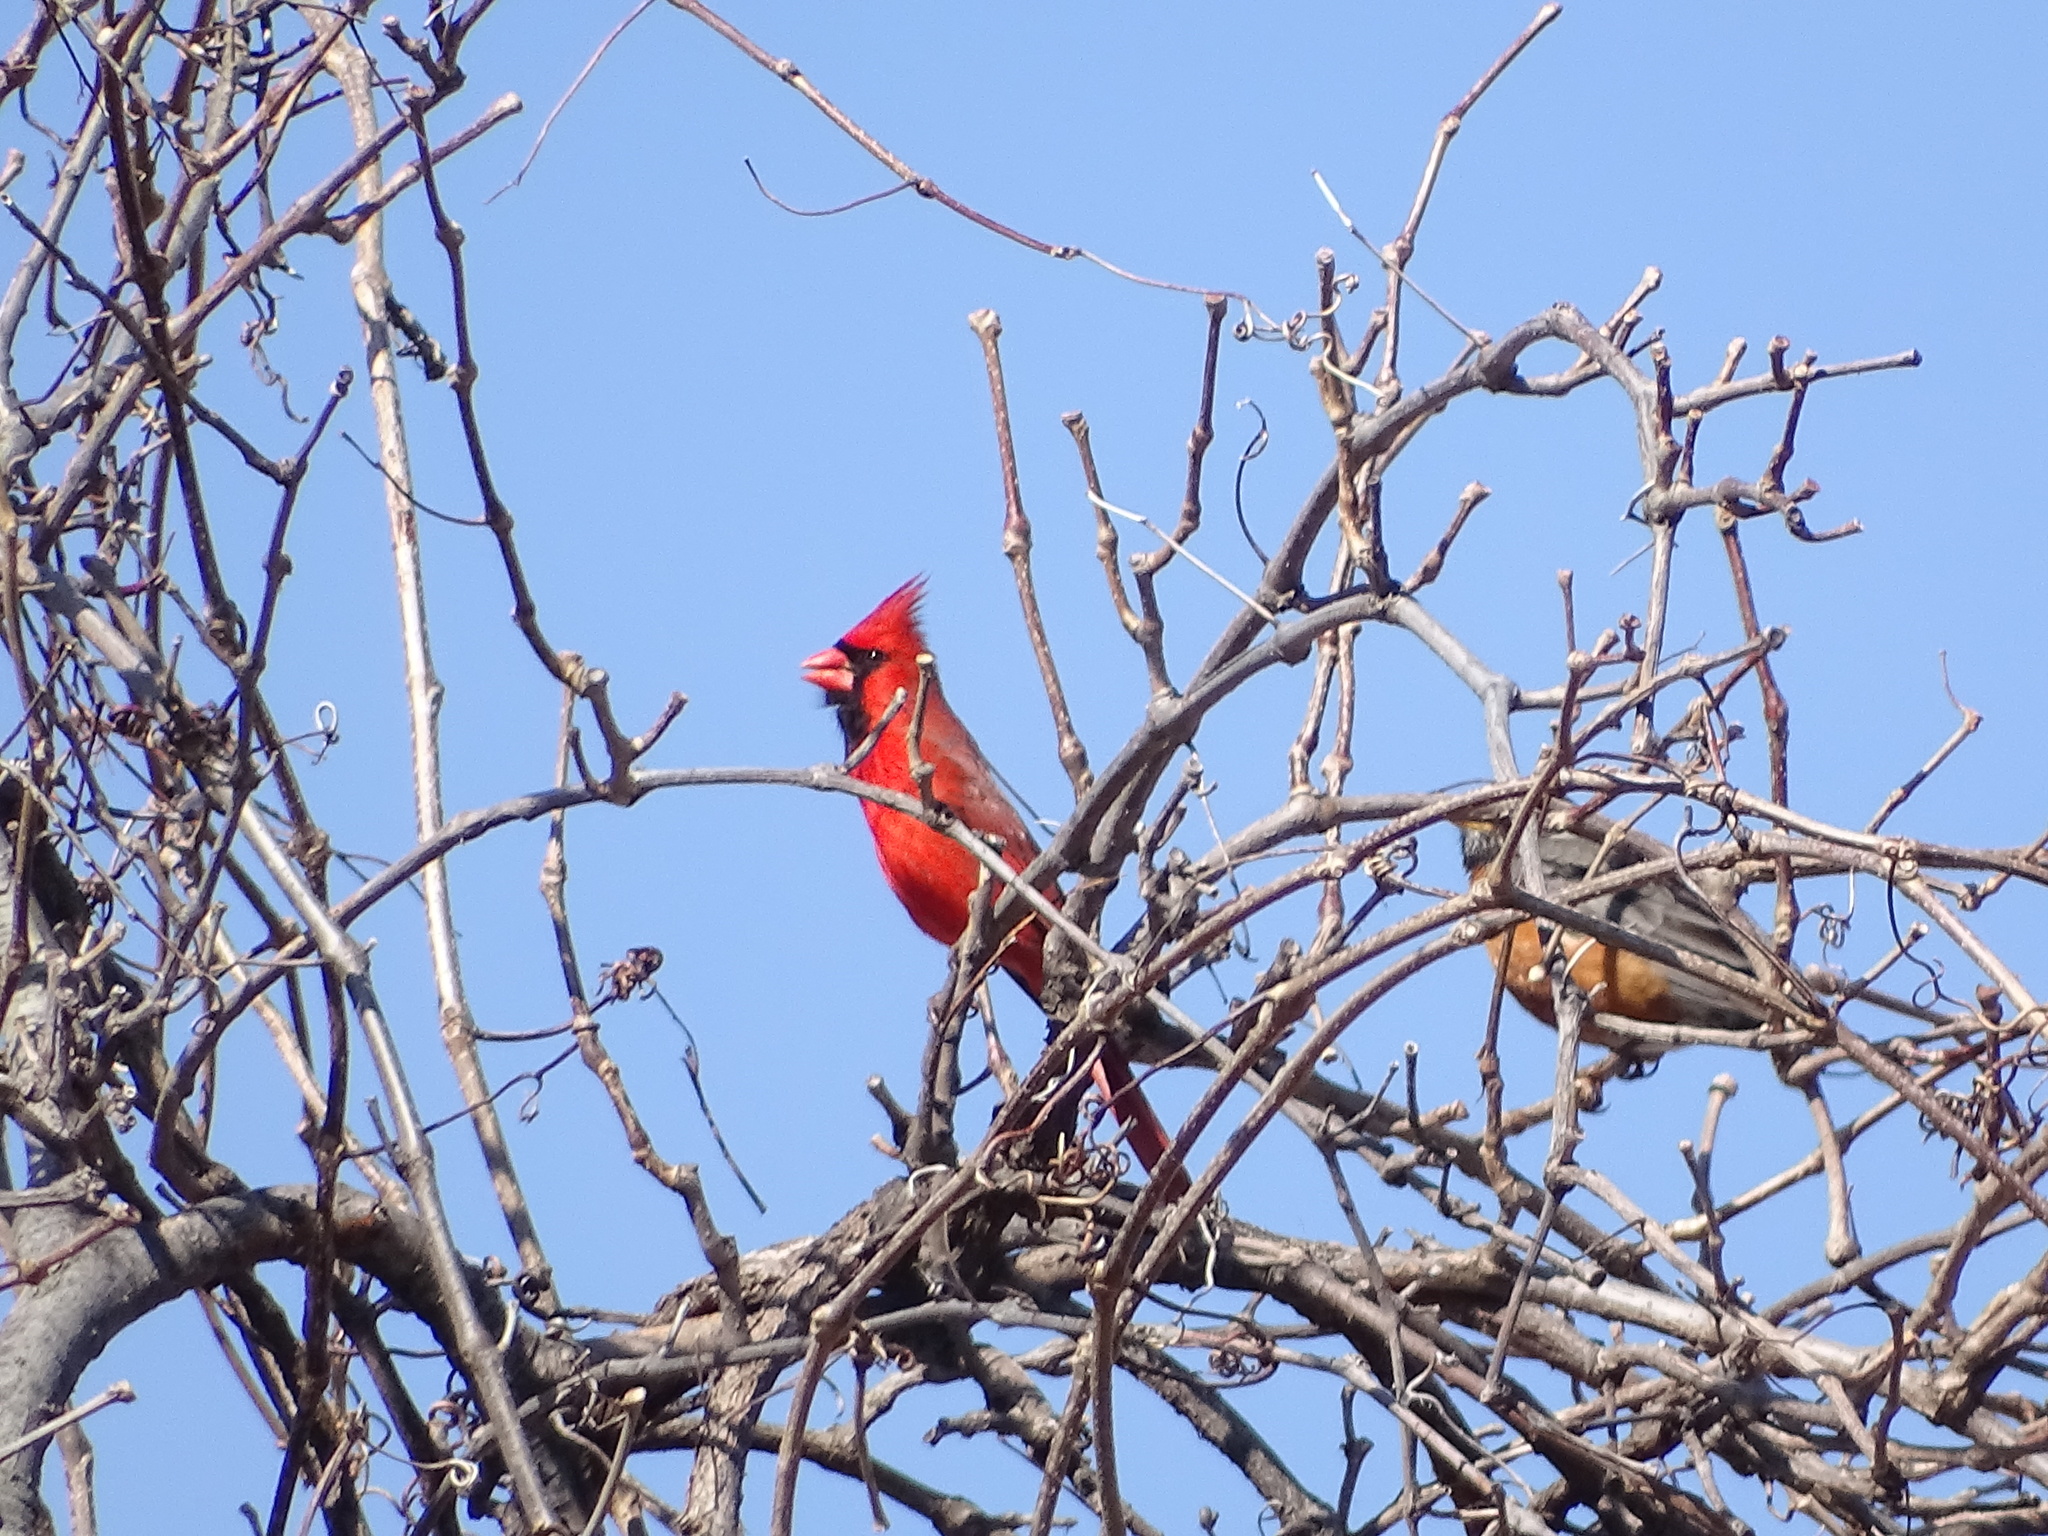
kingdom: Animalia
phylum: Chordata
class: Aves
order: Passeriformes
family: Cardinalidae
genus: Cardinalis
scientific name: Cardinalis cardinalis
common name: Northern cardinal
